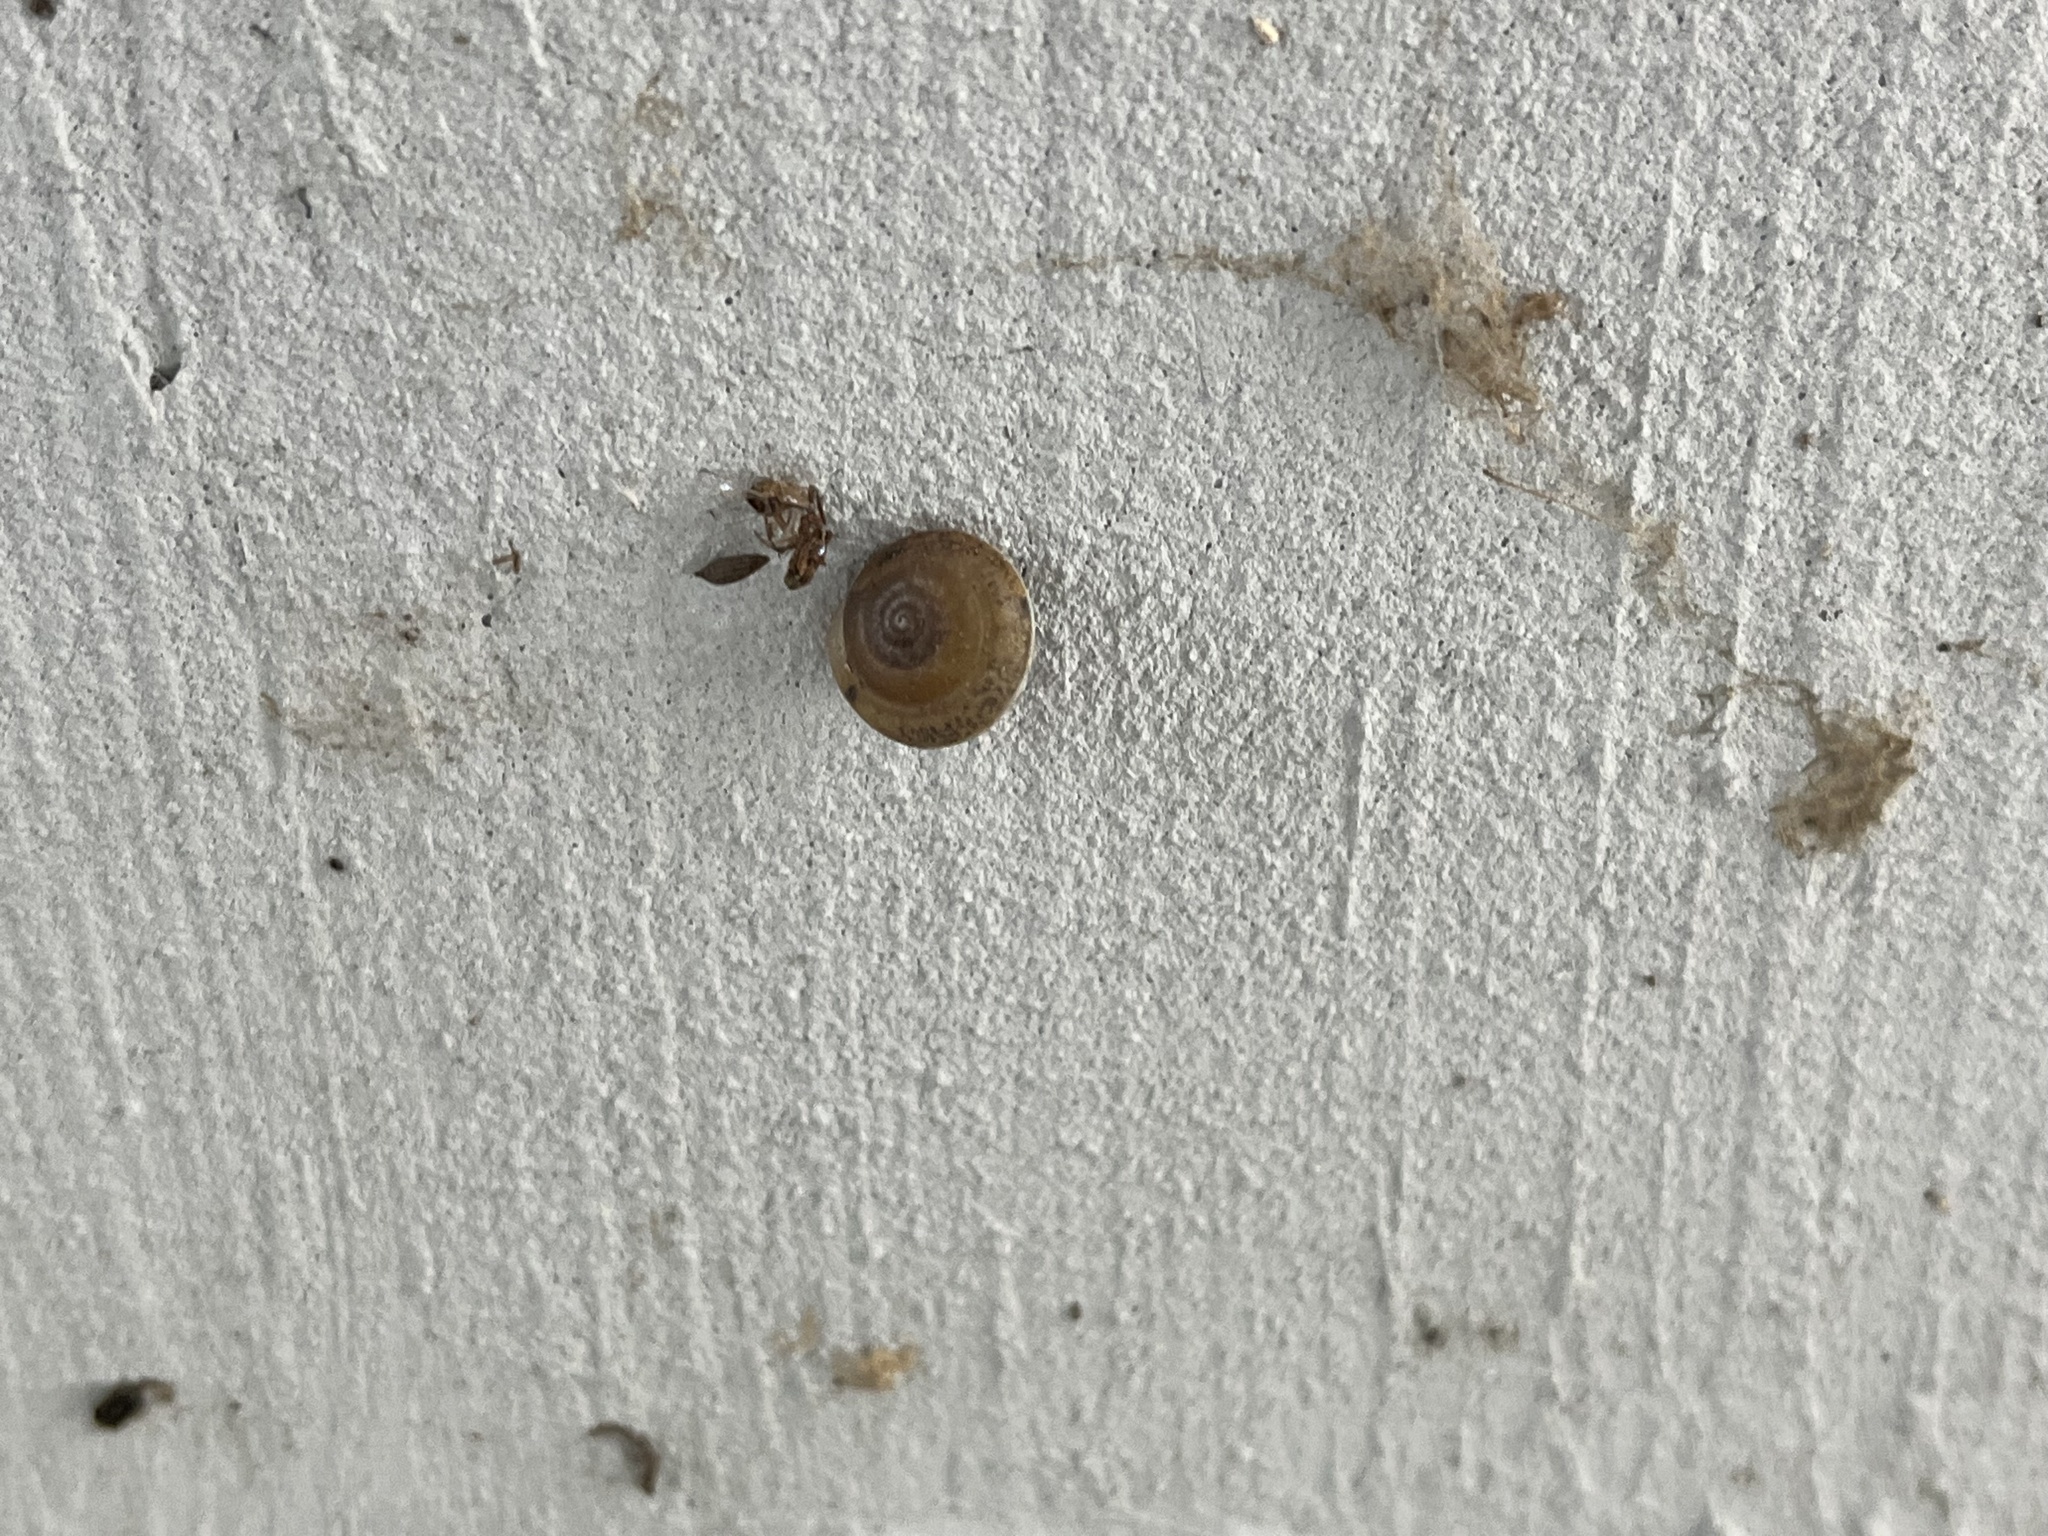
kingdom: Animalia
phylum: Mollusca
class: Gastropoda
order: Stylommatophora
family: Hygromiidae
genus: Hygromia
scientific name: Hygromia cinctella
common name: Girdled snail
